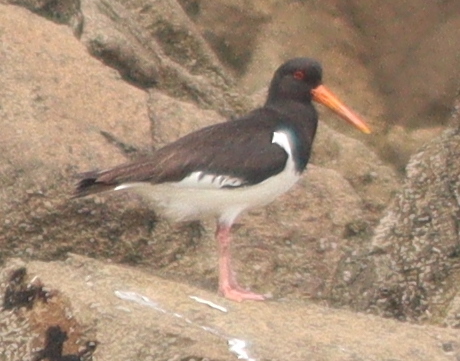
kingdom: Animalia
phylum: Chordata
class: Aves
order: Charadriiformes
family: Haematopodidae
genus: Haematopus
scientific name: Haematopus ostralegus
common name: Eurasian oystercatcher
